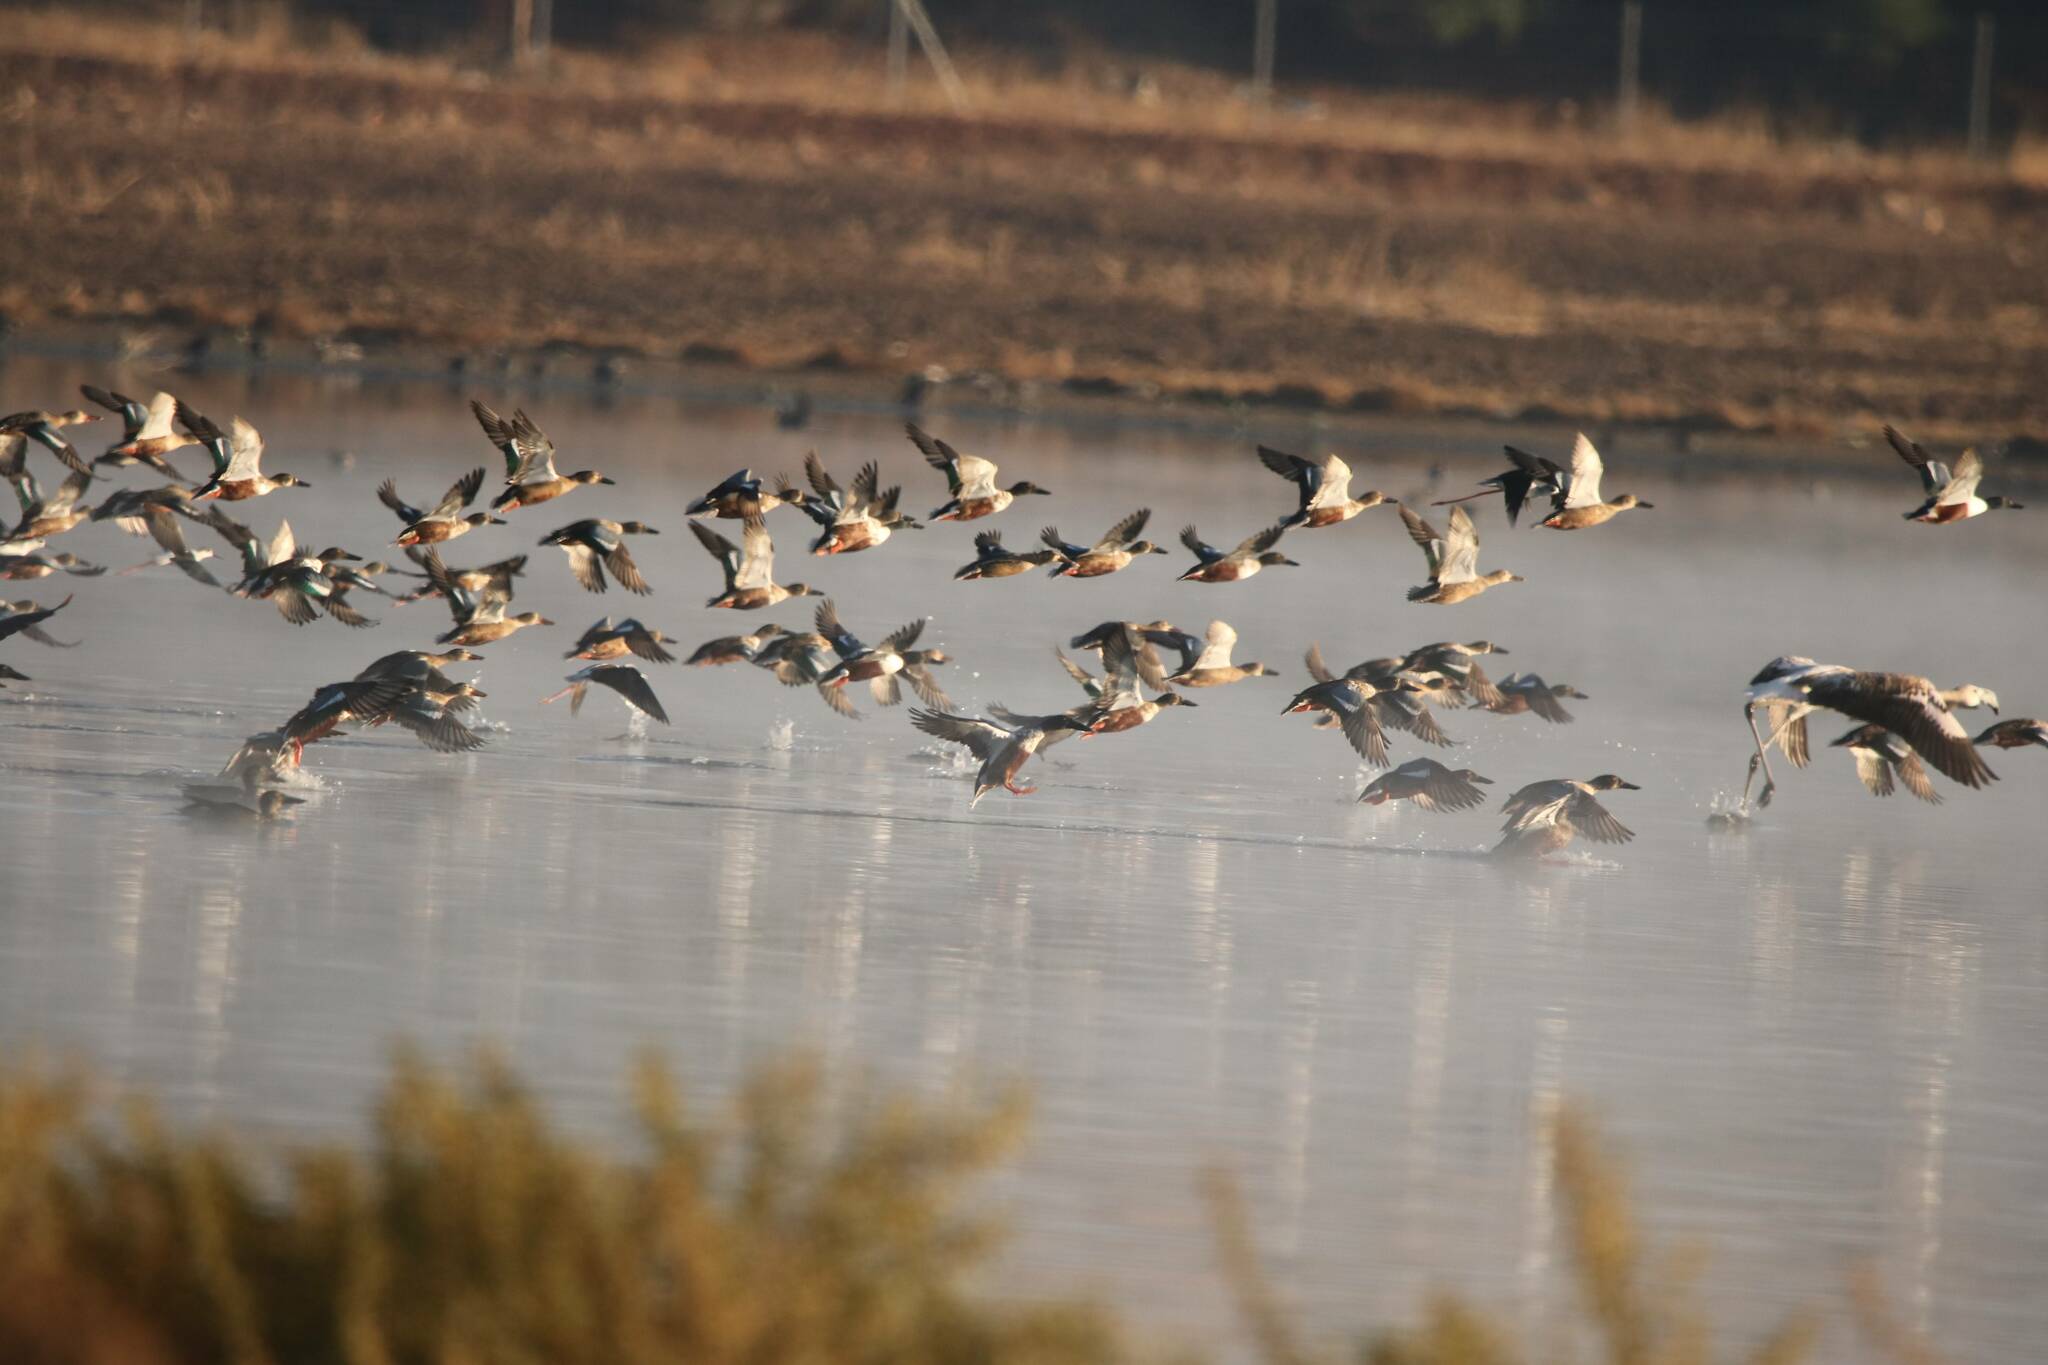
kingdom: Animalia
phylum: Chordata
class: Aves
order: Anseriformes
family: Anatidae
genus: Spatula
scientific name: Spatula clypeata
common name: Northern shoveler
